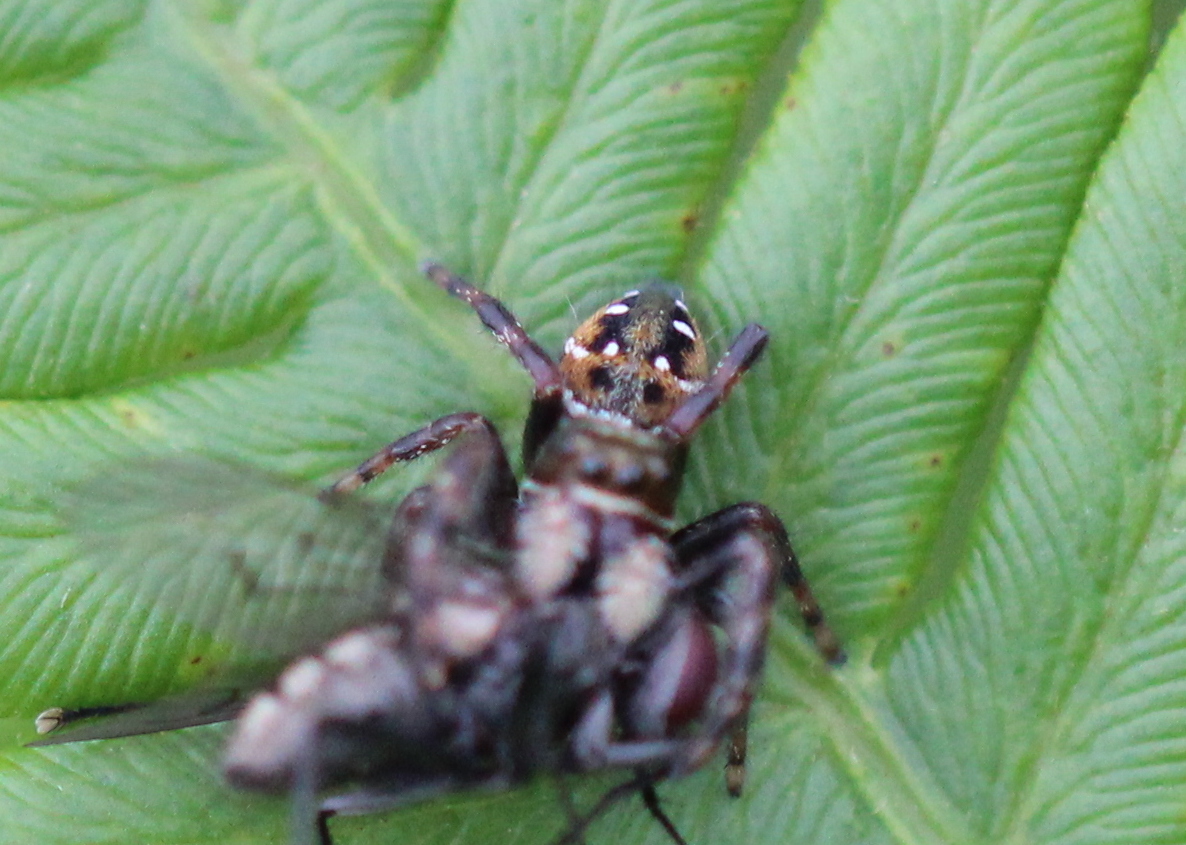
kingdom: Animalia
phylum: Arthropoda
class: Arachnida
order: Araneae
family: Salticidae
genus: Phidippus
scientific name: Phidippus clarus
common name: Brilliant jumping spider
